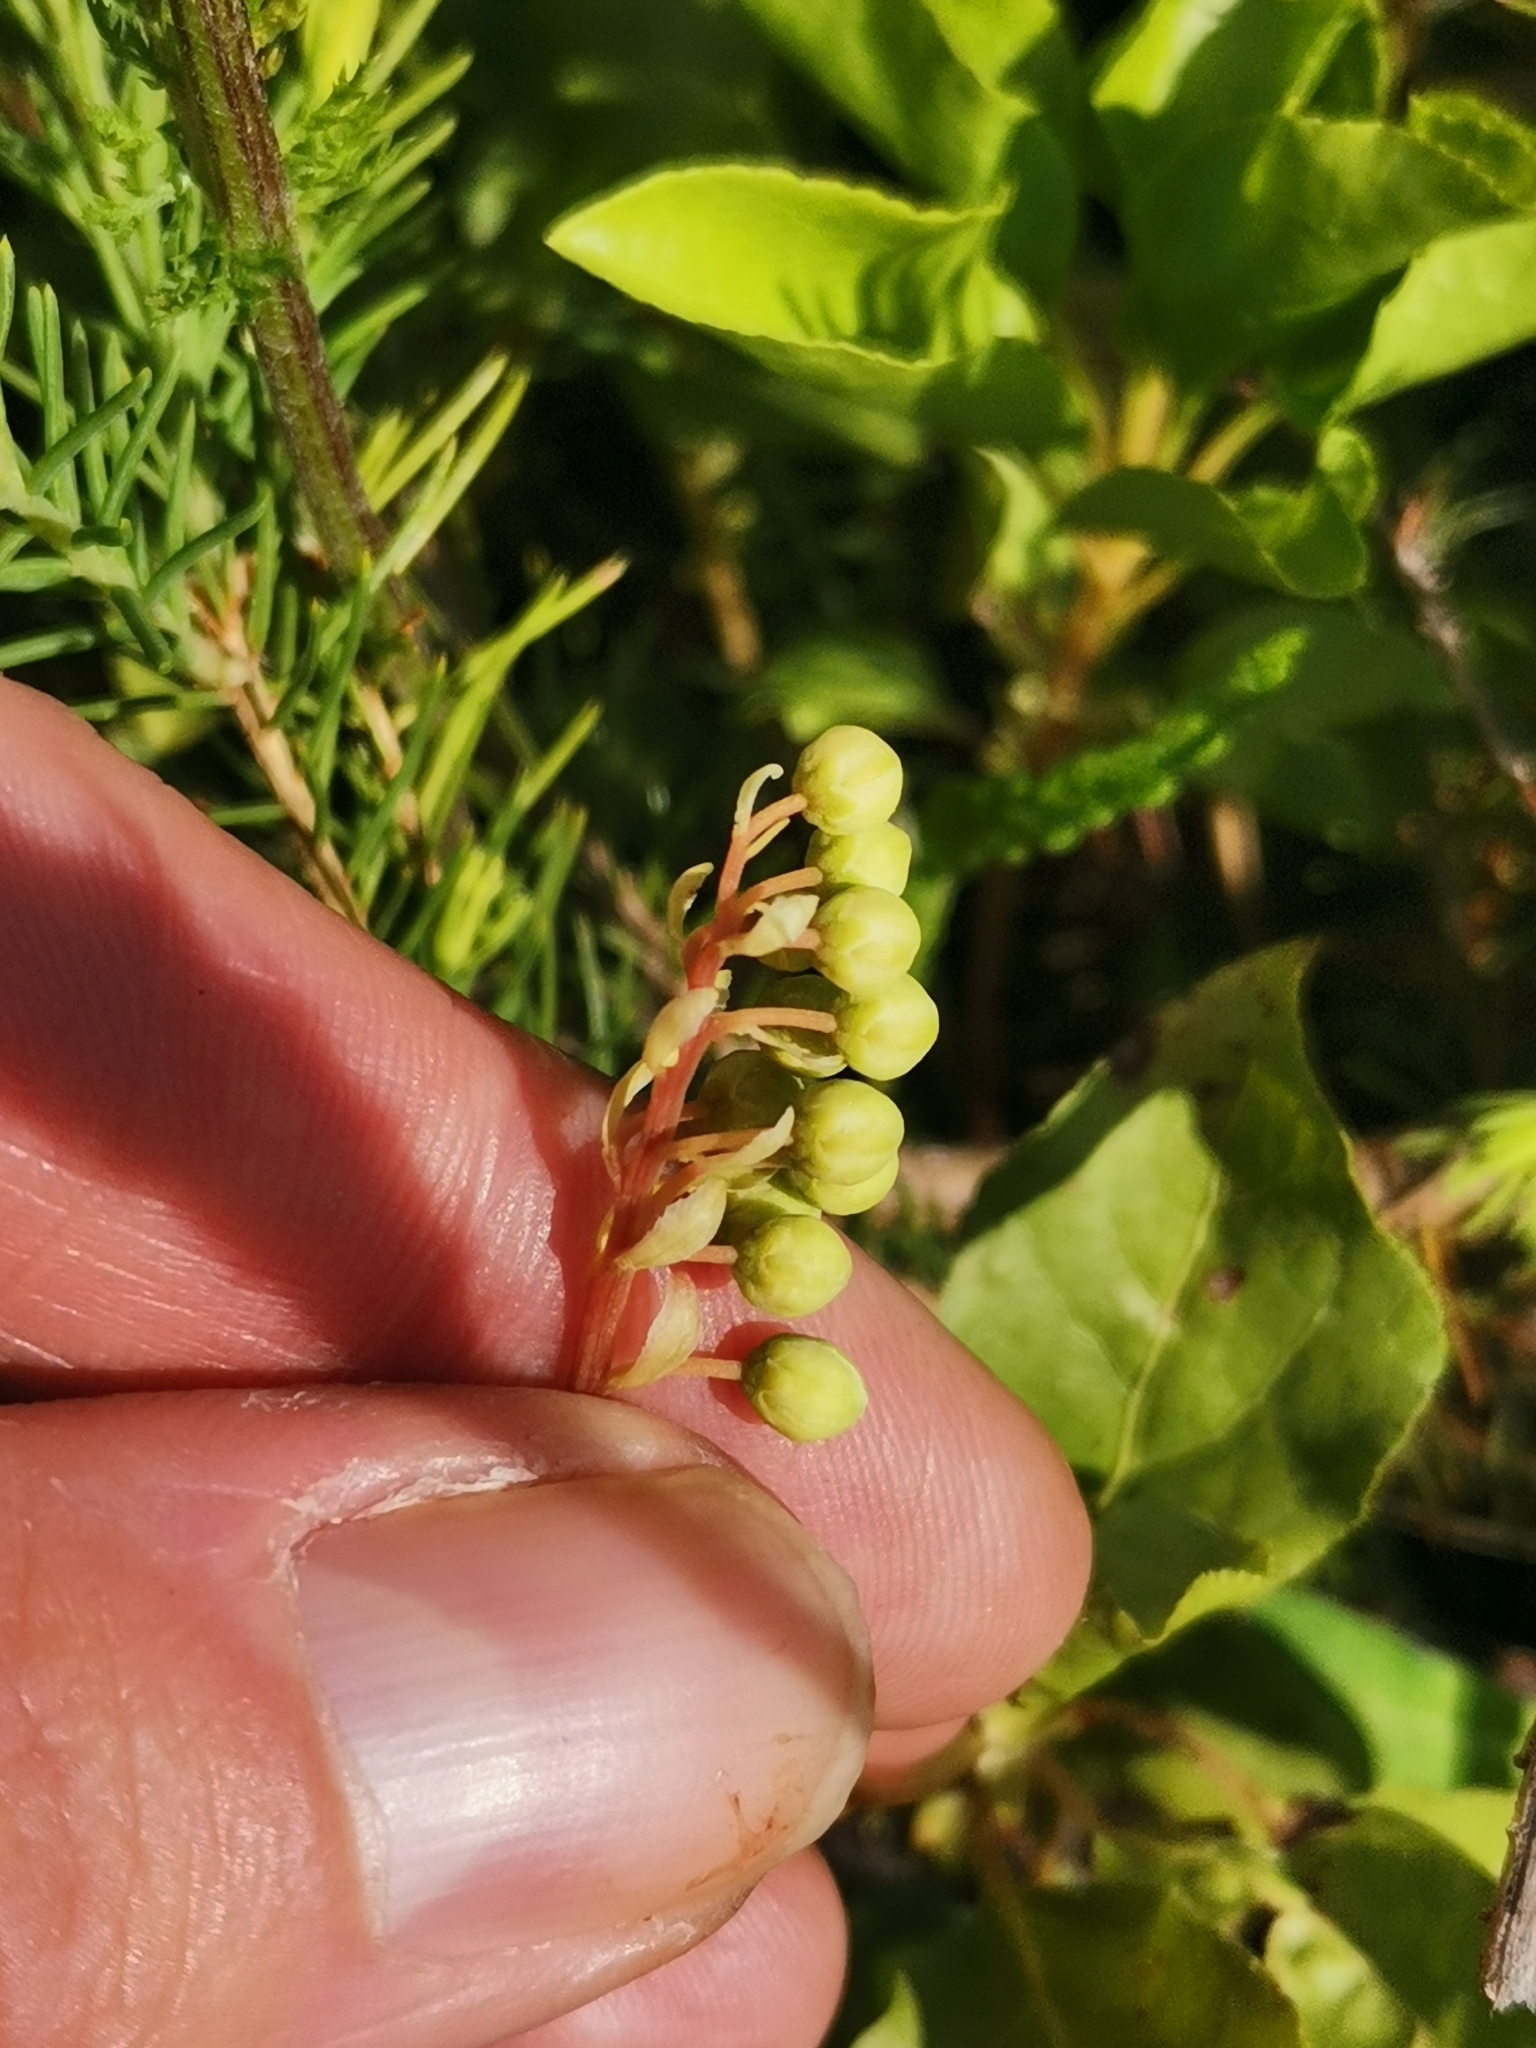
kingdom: Plantae
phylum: Tracheophyta
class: Magnoliopsida
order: Ericales
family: Ericaceae
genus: Orthilia
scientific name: Orthilia secunda
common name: One-sided orthilia
